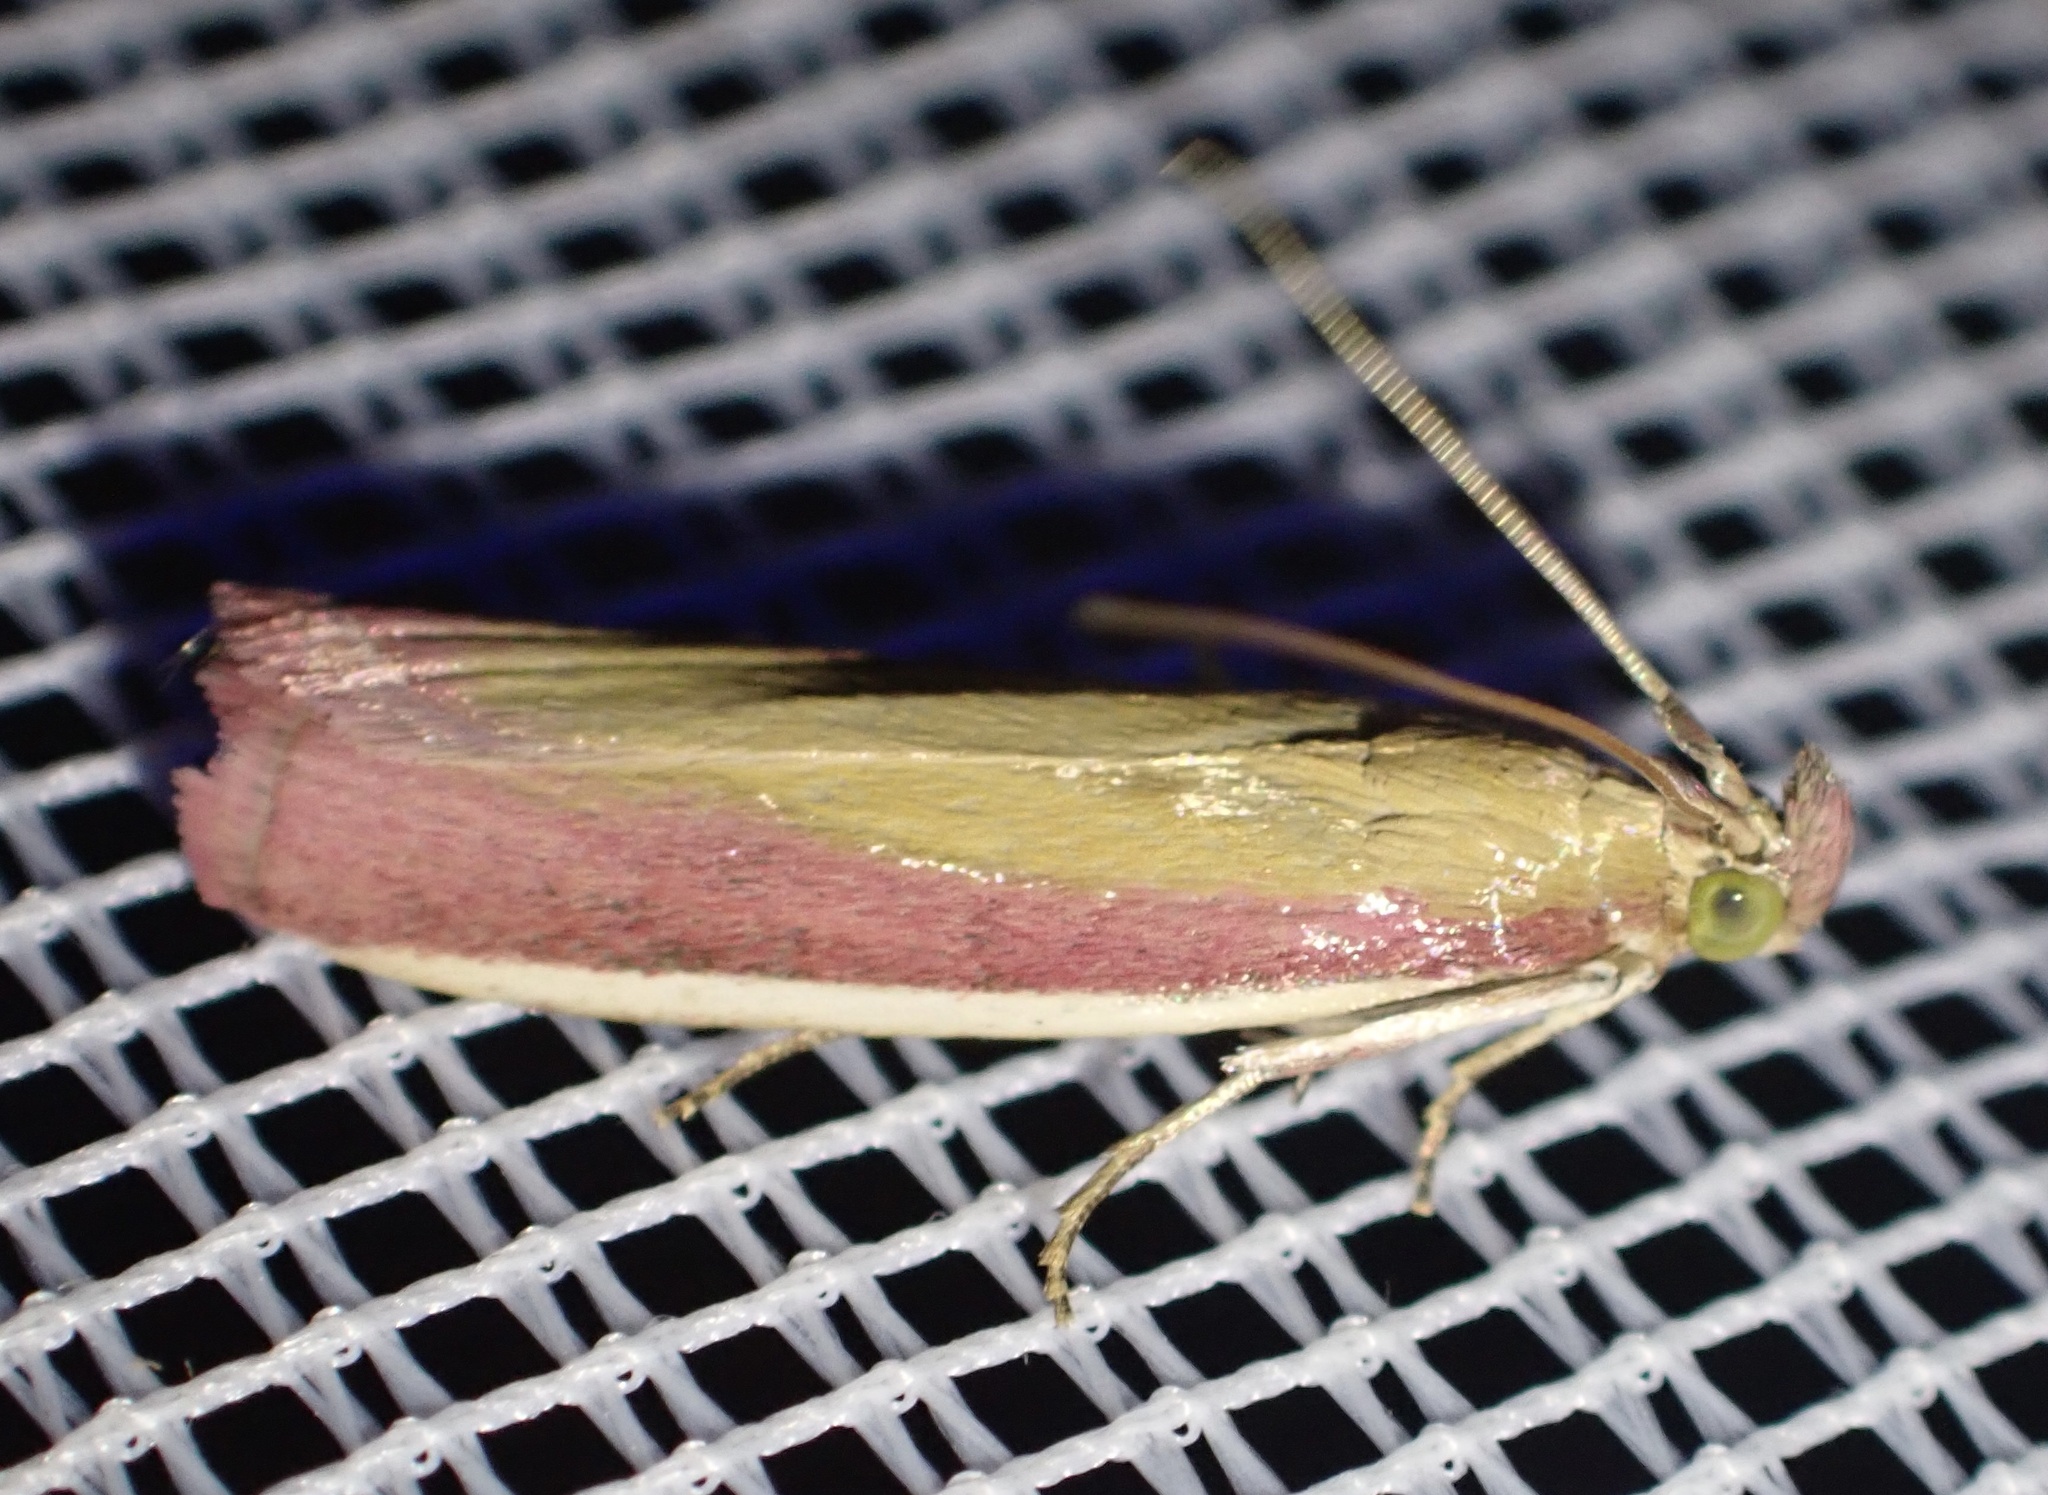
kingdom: Animalia
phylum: Arthropoda
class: Insecta
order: Lepidoptera
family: Pyralidae
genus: Oncocera
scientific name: Oncocera semirubella
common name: Rosy-striped knot-horn
